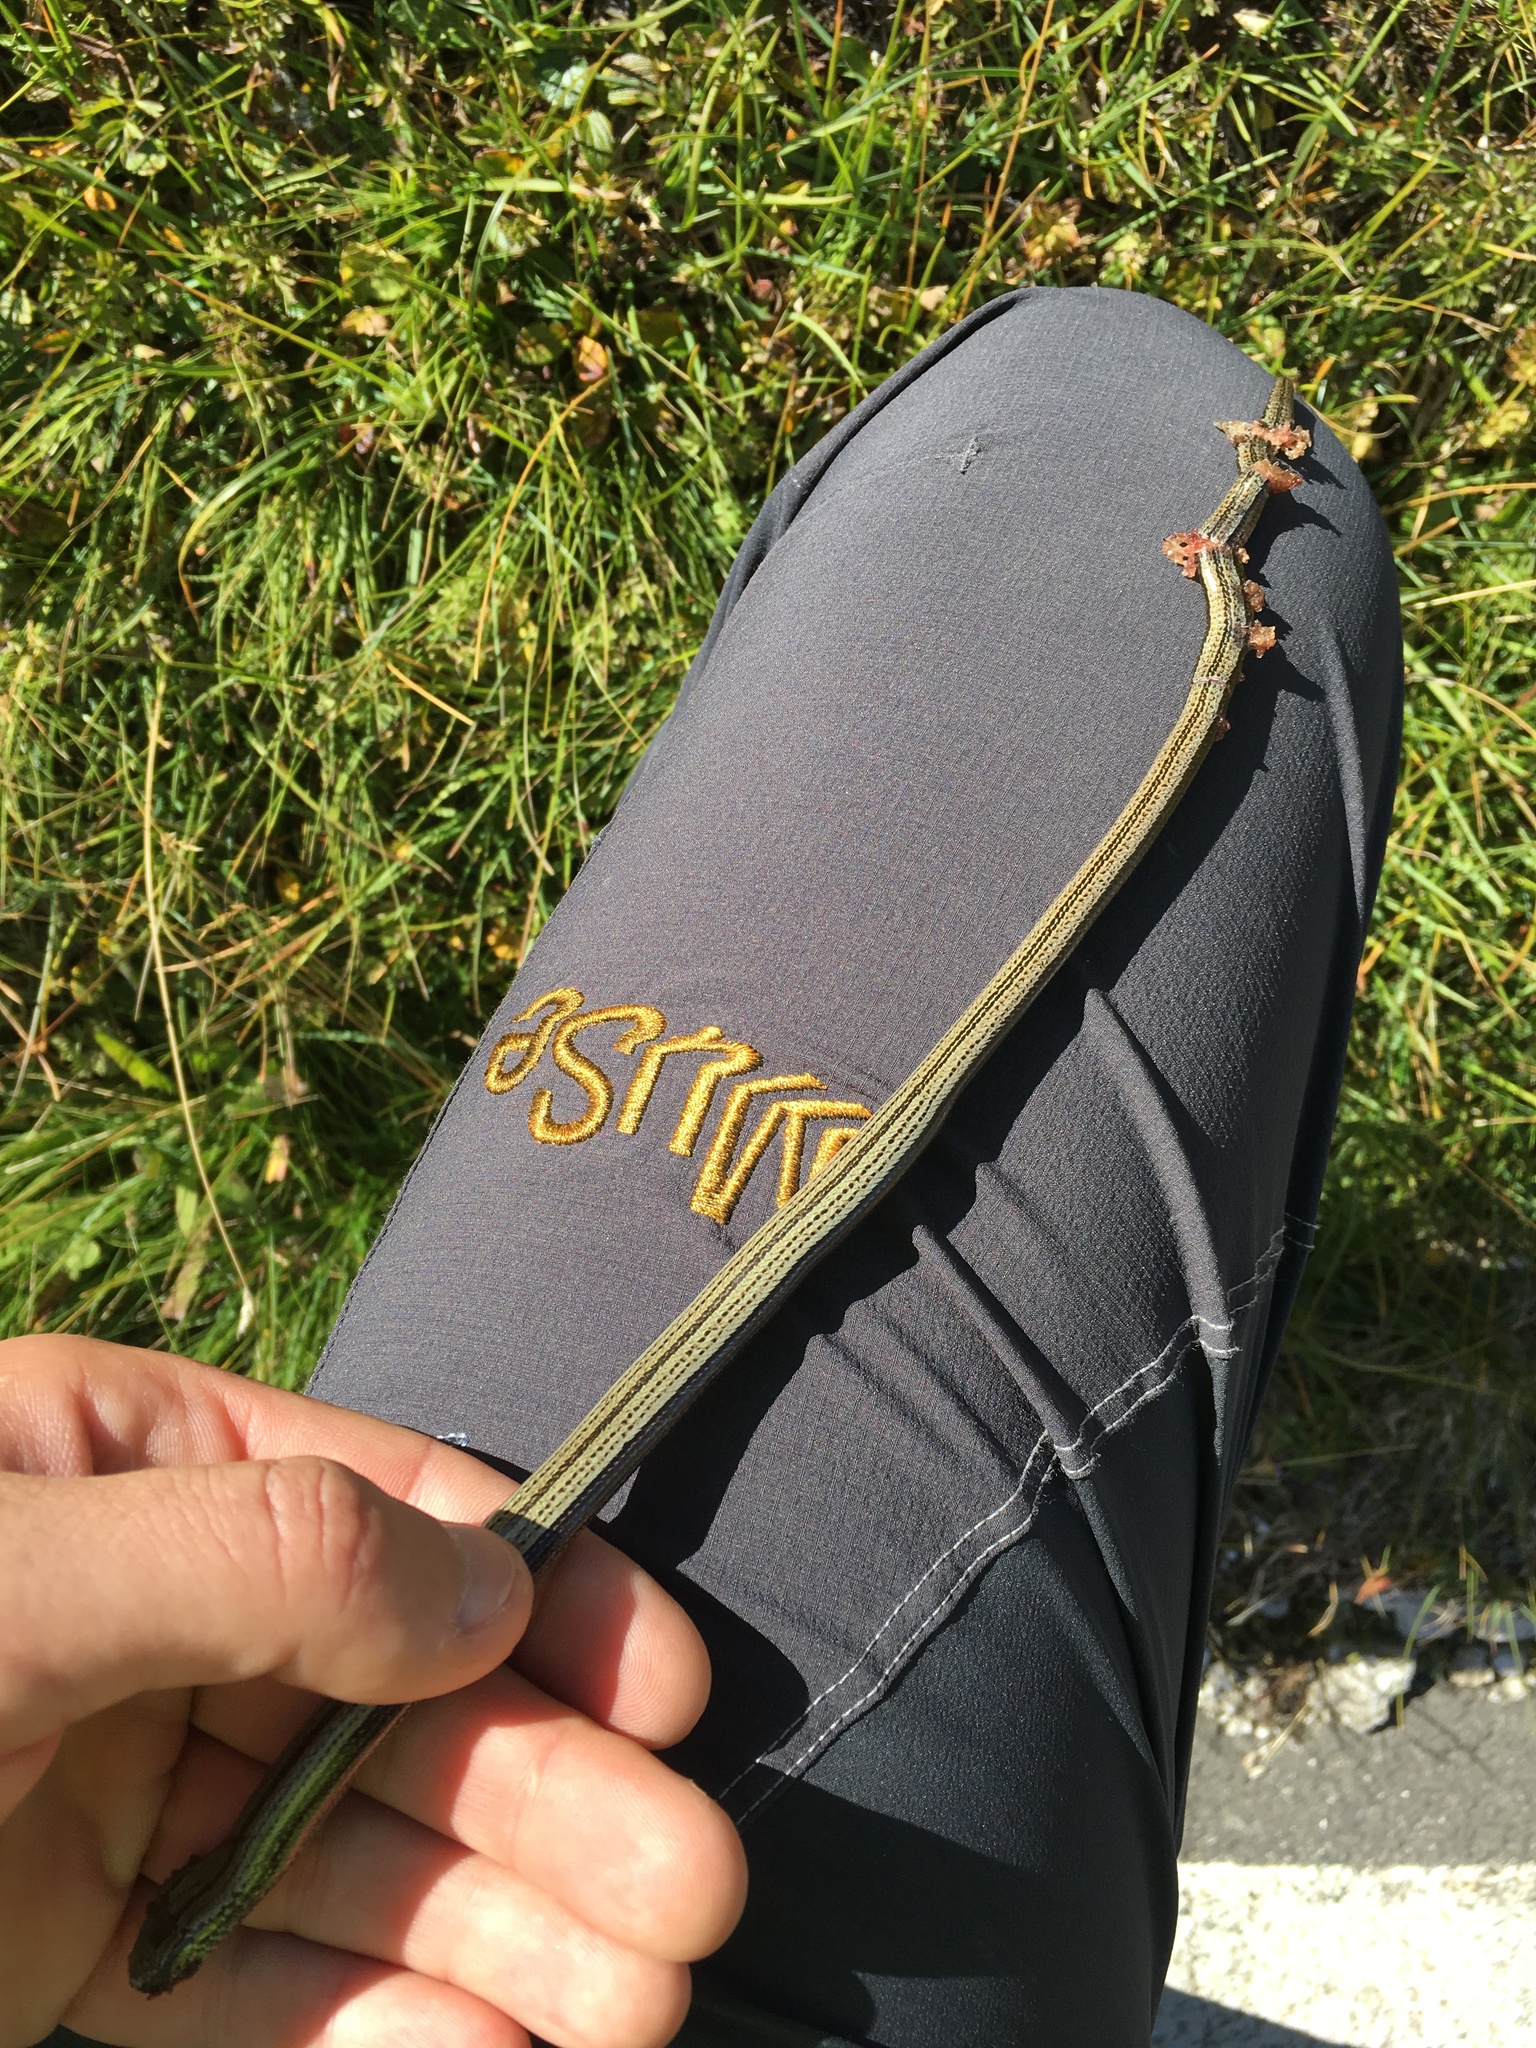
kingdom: Animalia
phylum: Chordata
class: Squamata
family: Anguidae
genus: Anguis
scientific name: Anguis veronensis
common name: Italian slow worm
